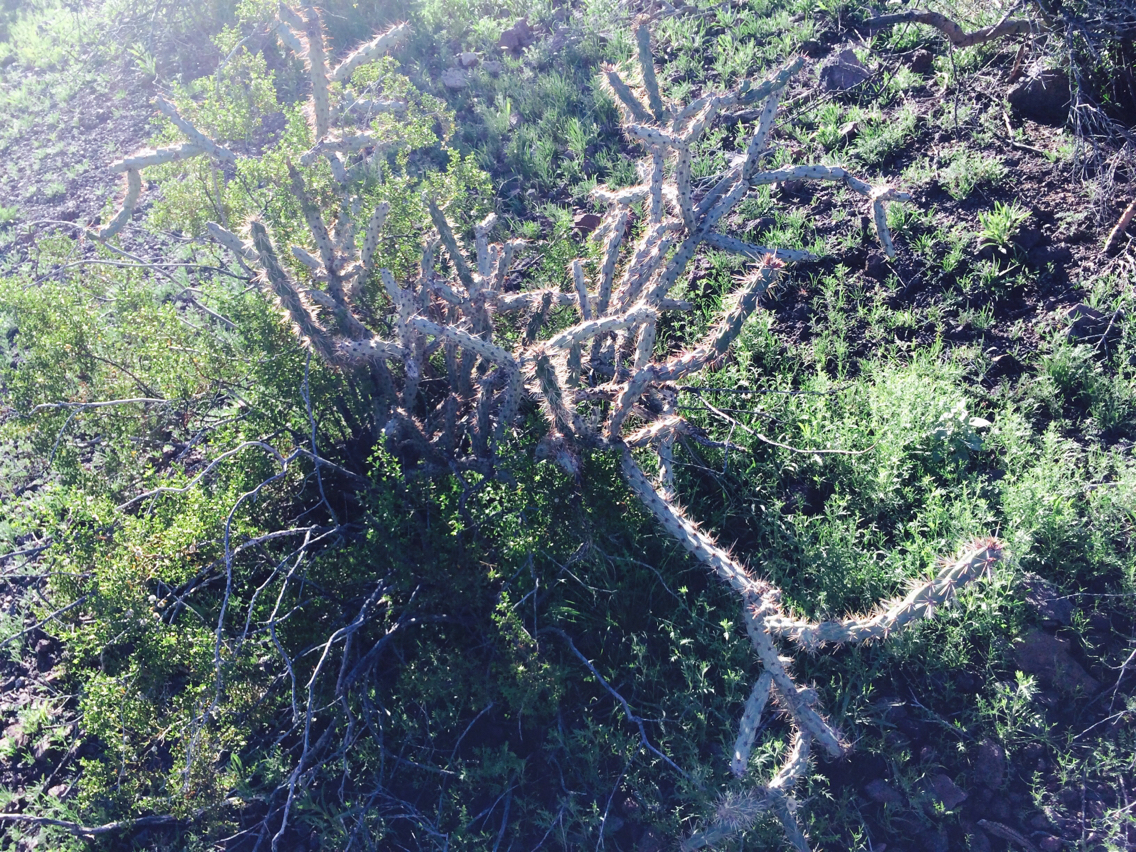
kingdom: Plantae
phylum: Tracheophyta
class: Magnoliopsida
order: Caryophyllales
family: Cactaceae
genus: Cylindropuntia
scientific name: Cylindropuntia imbricata
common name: Candelabrum cactus
